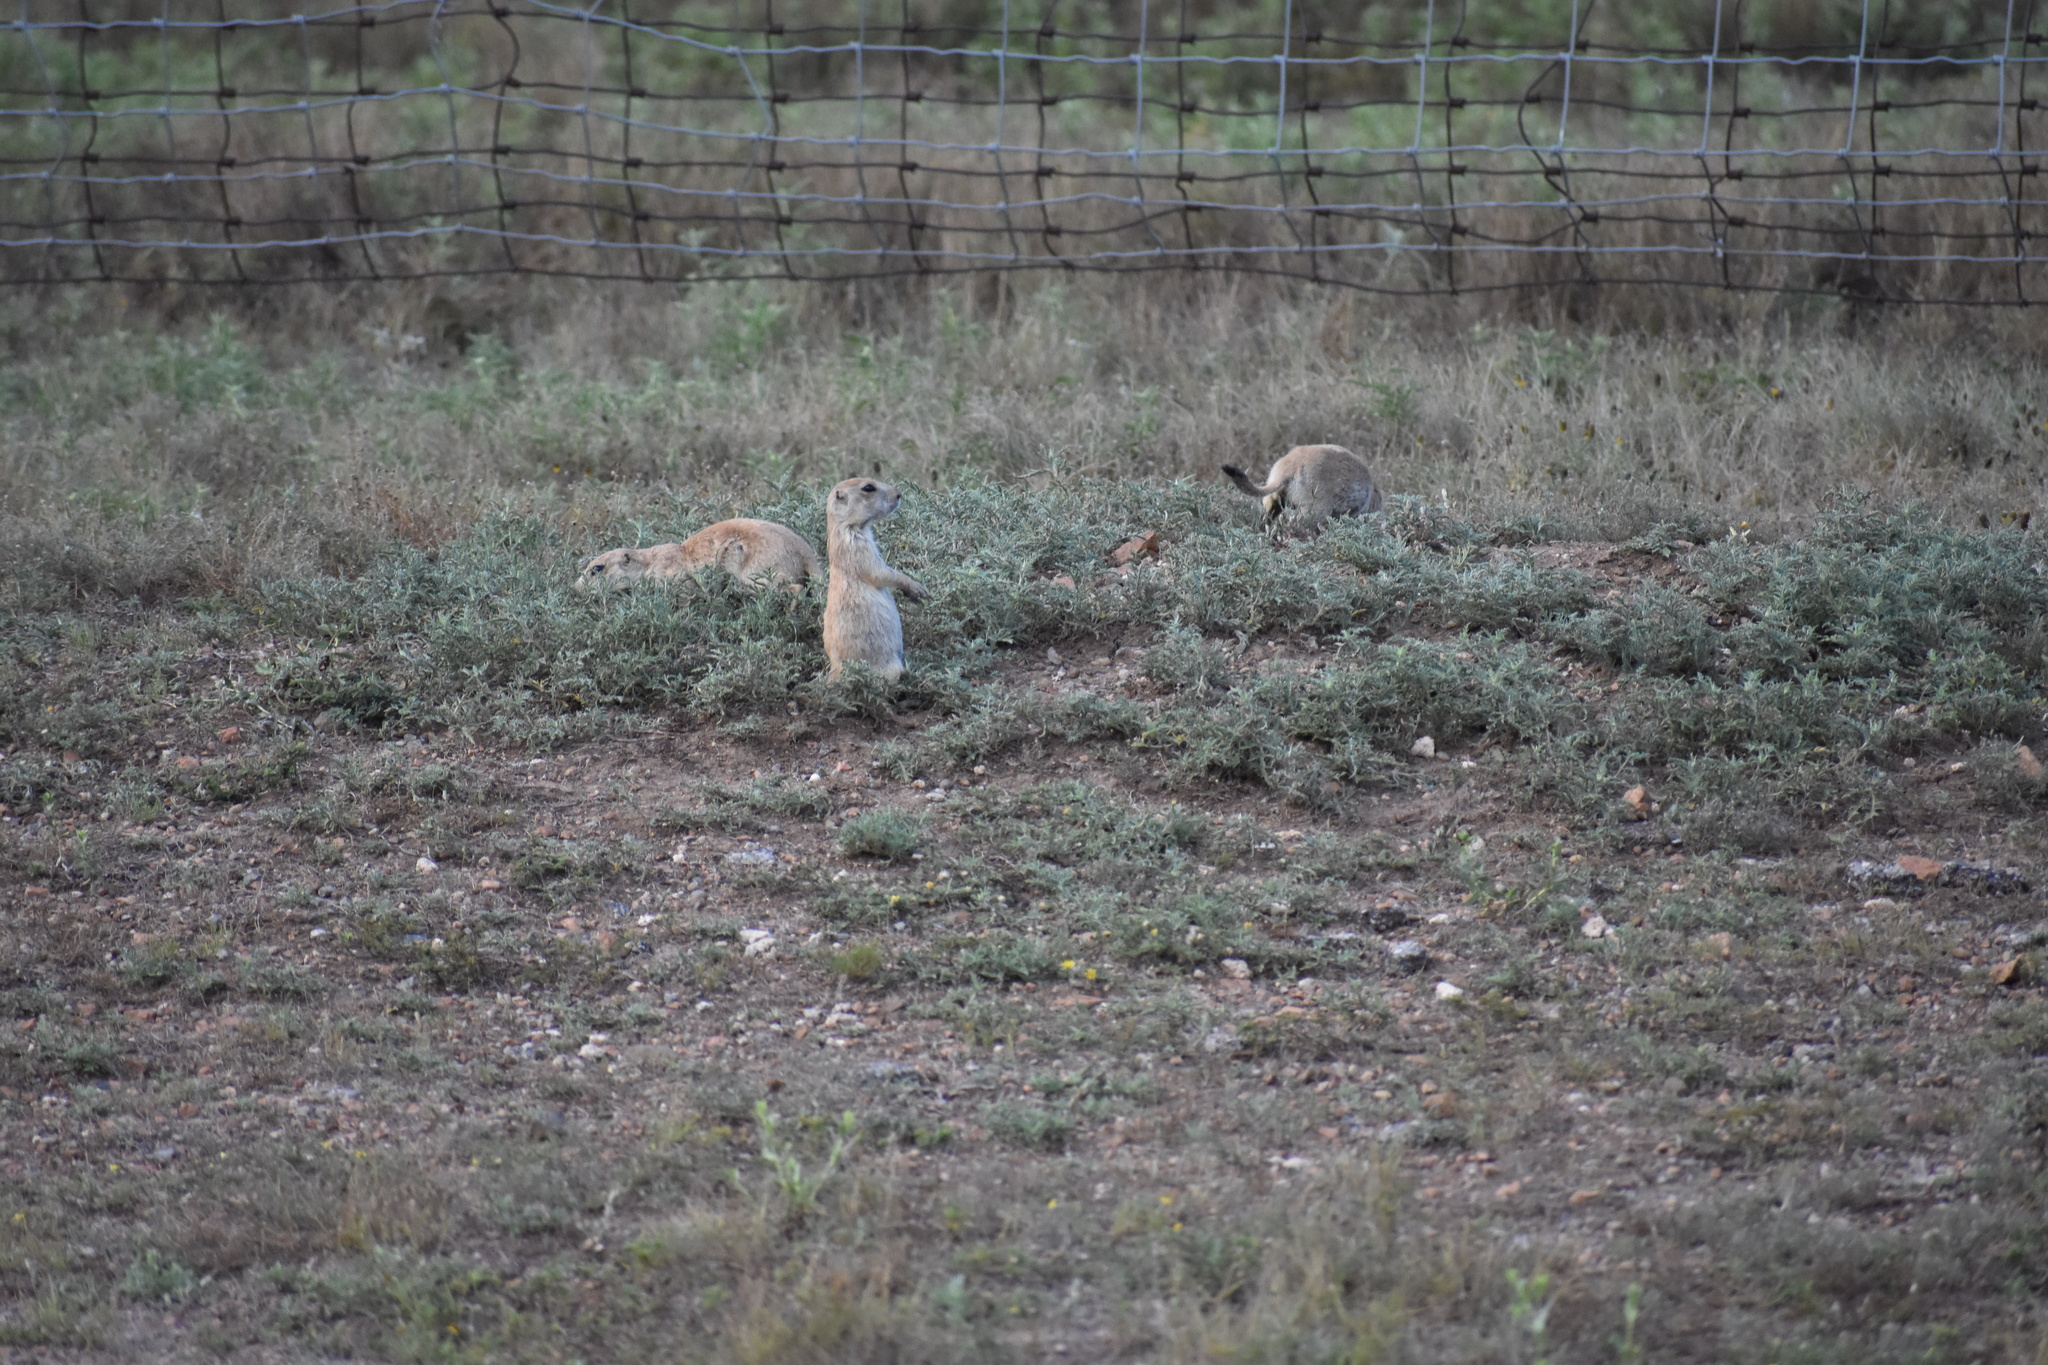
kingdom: Animalia
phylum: Chordata
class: Mammalia
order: Rodentia
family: Sciuridae
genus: Cynomys
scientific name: Cynomys ludovicianus
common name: Black-tailed prairie dog
